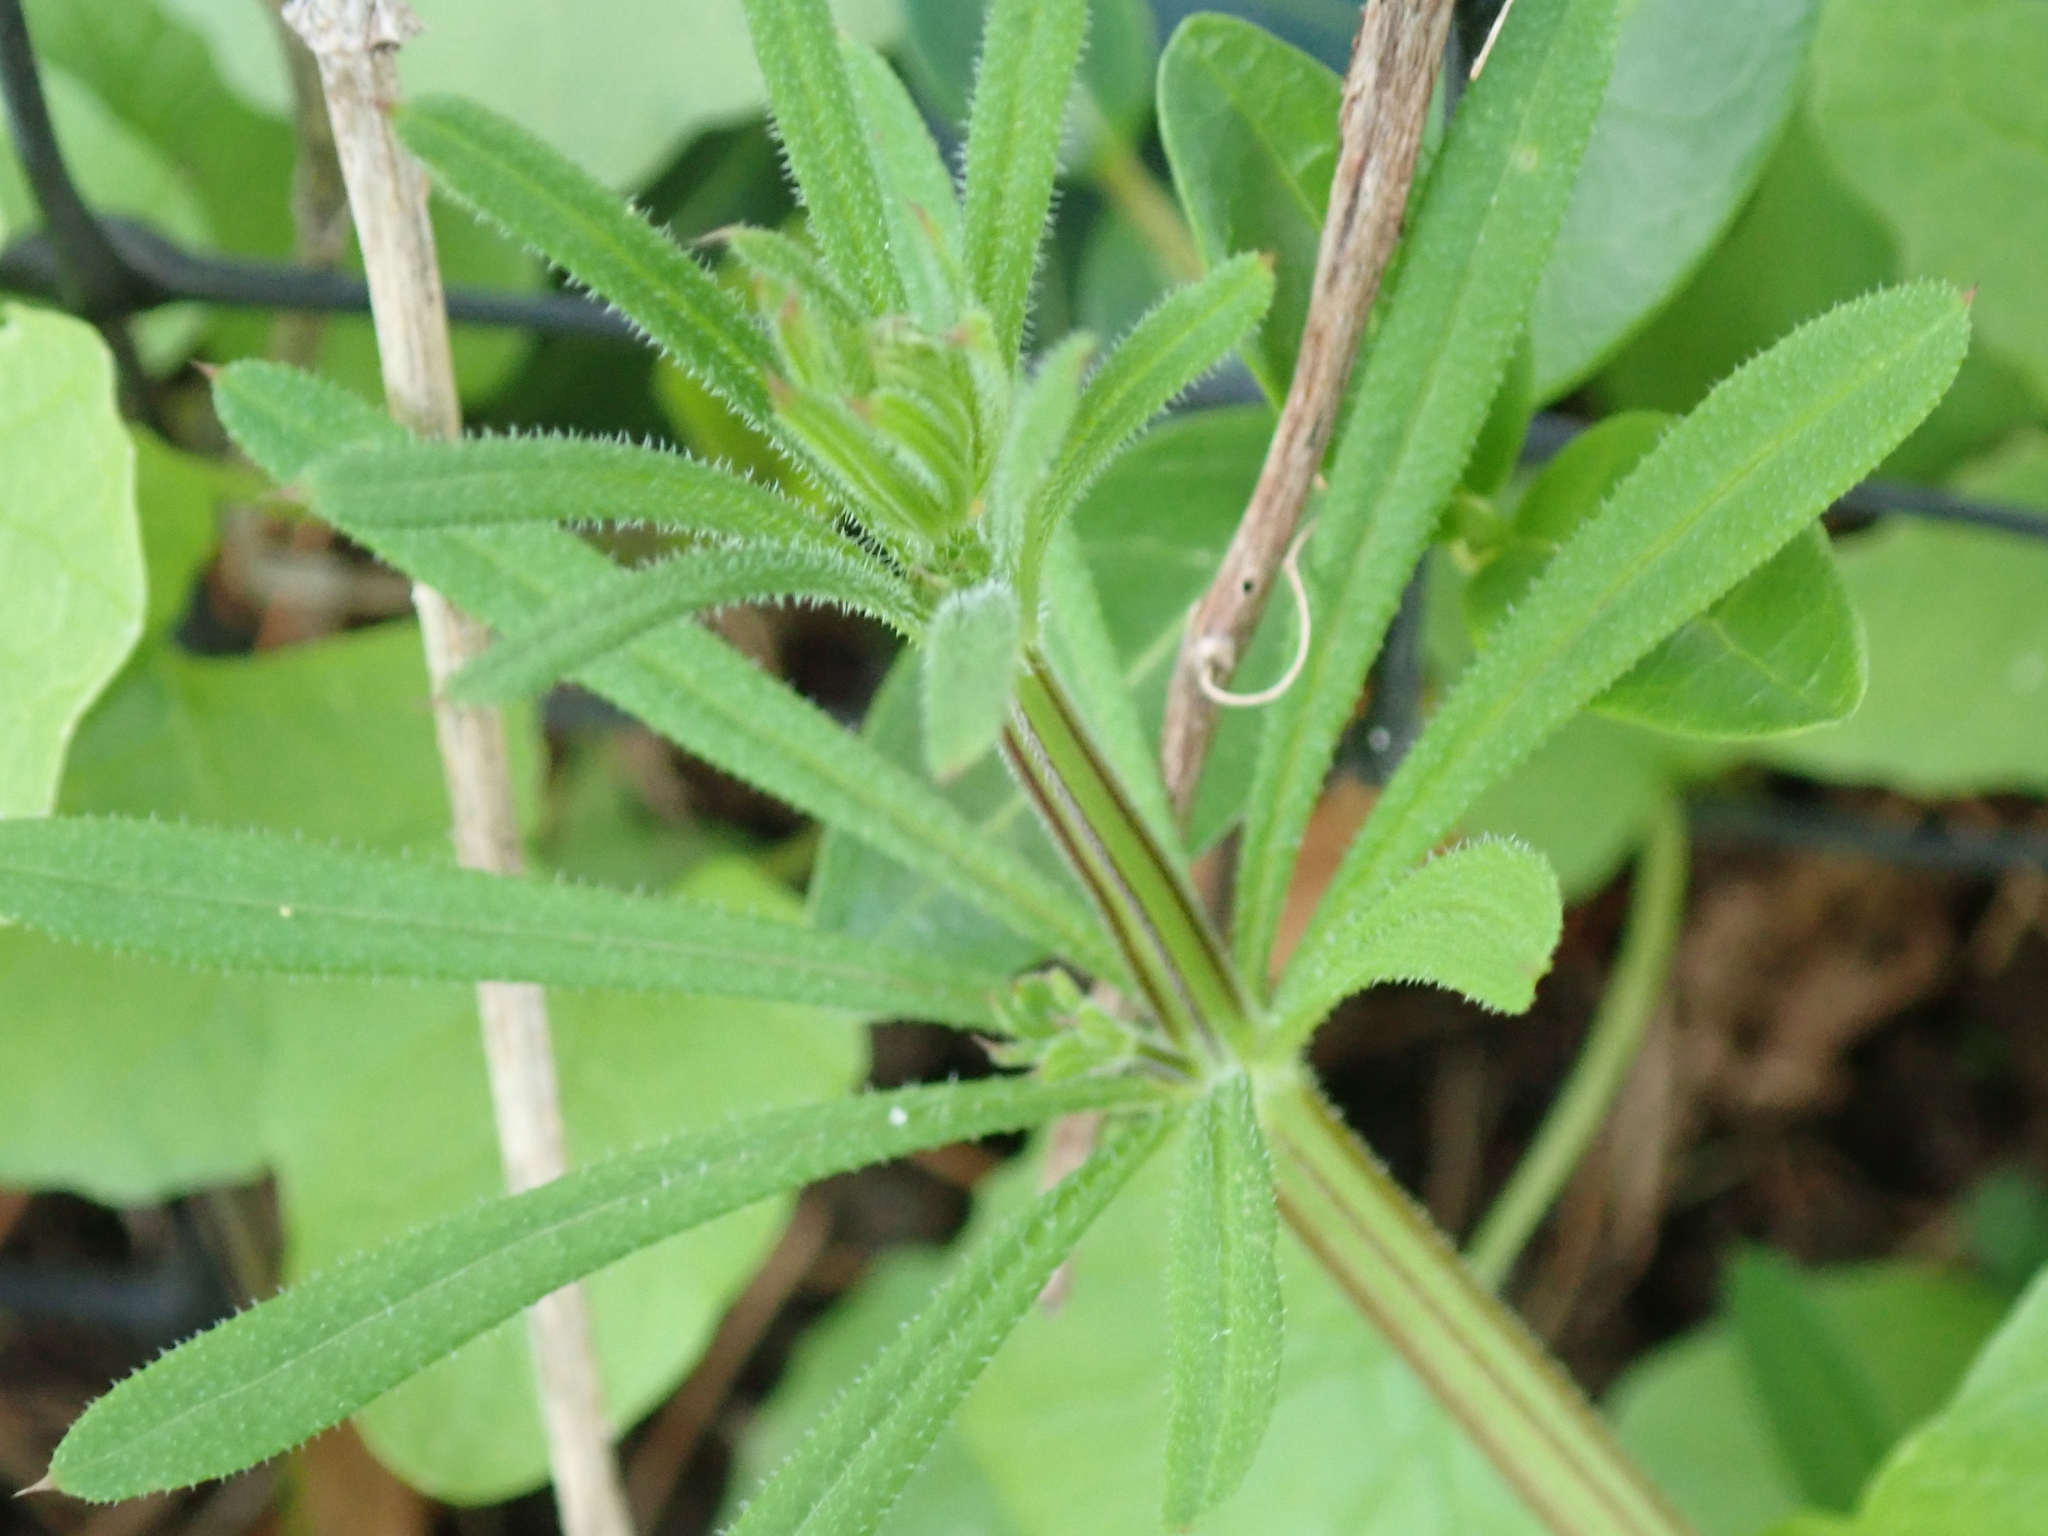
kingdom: Plantae
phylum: Tracheophyta
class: Magnoliopsida
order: Gentianales
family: Rubiaceae
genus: Galium
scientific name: Galium aparine
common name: Cleavers
